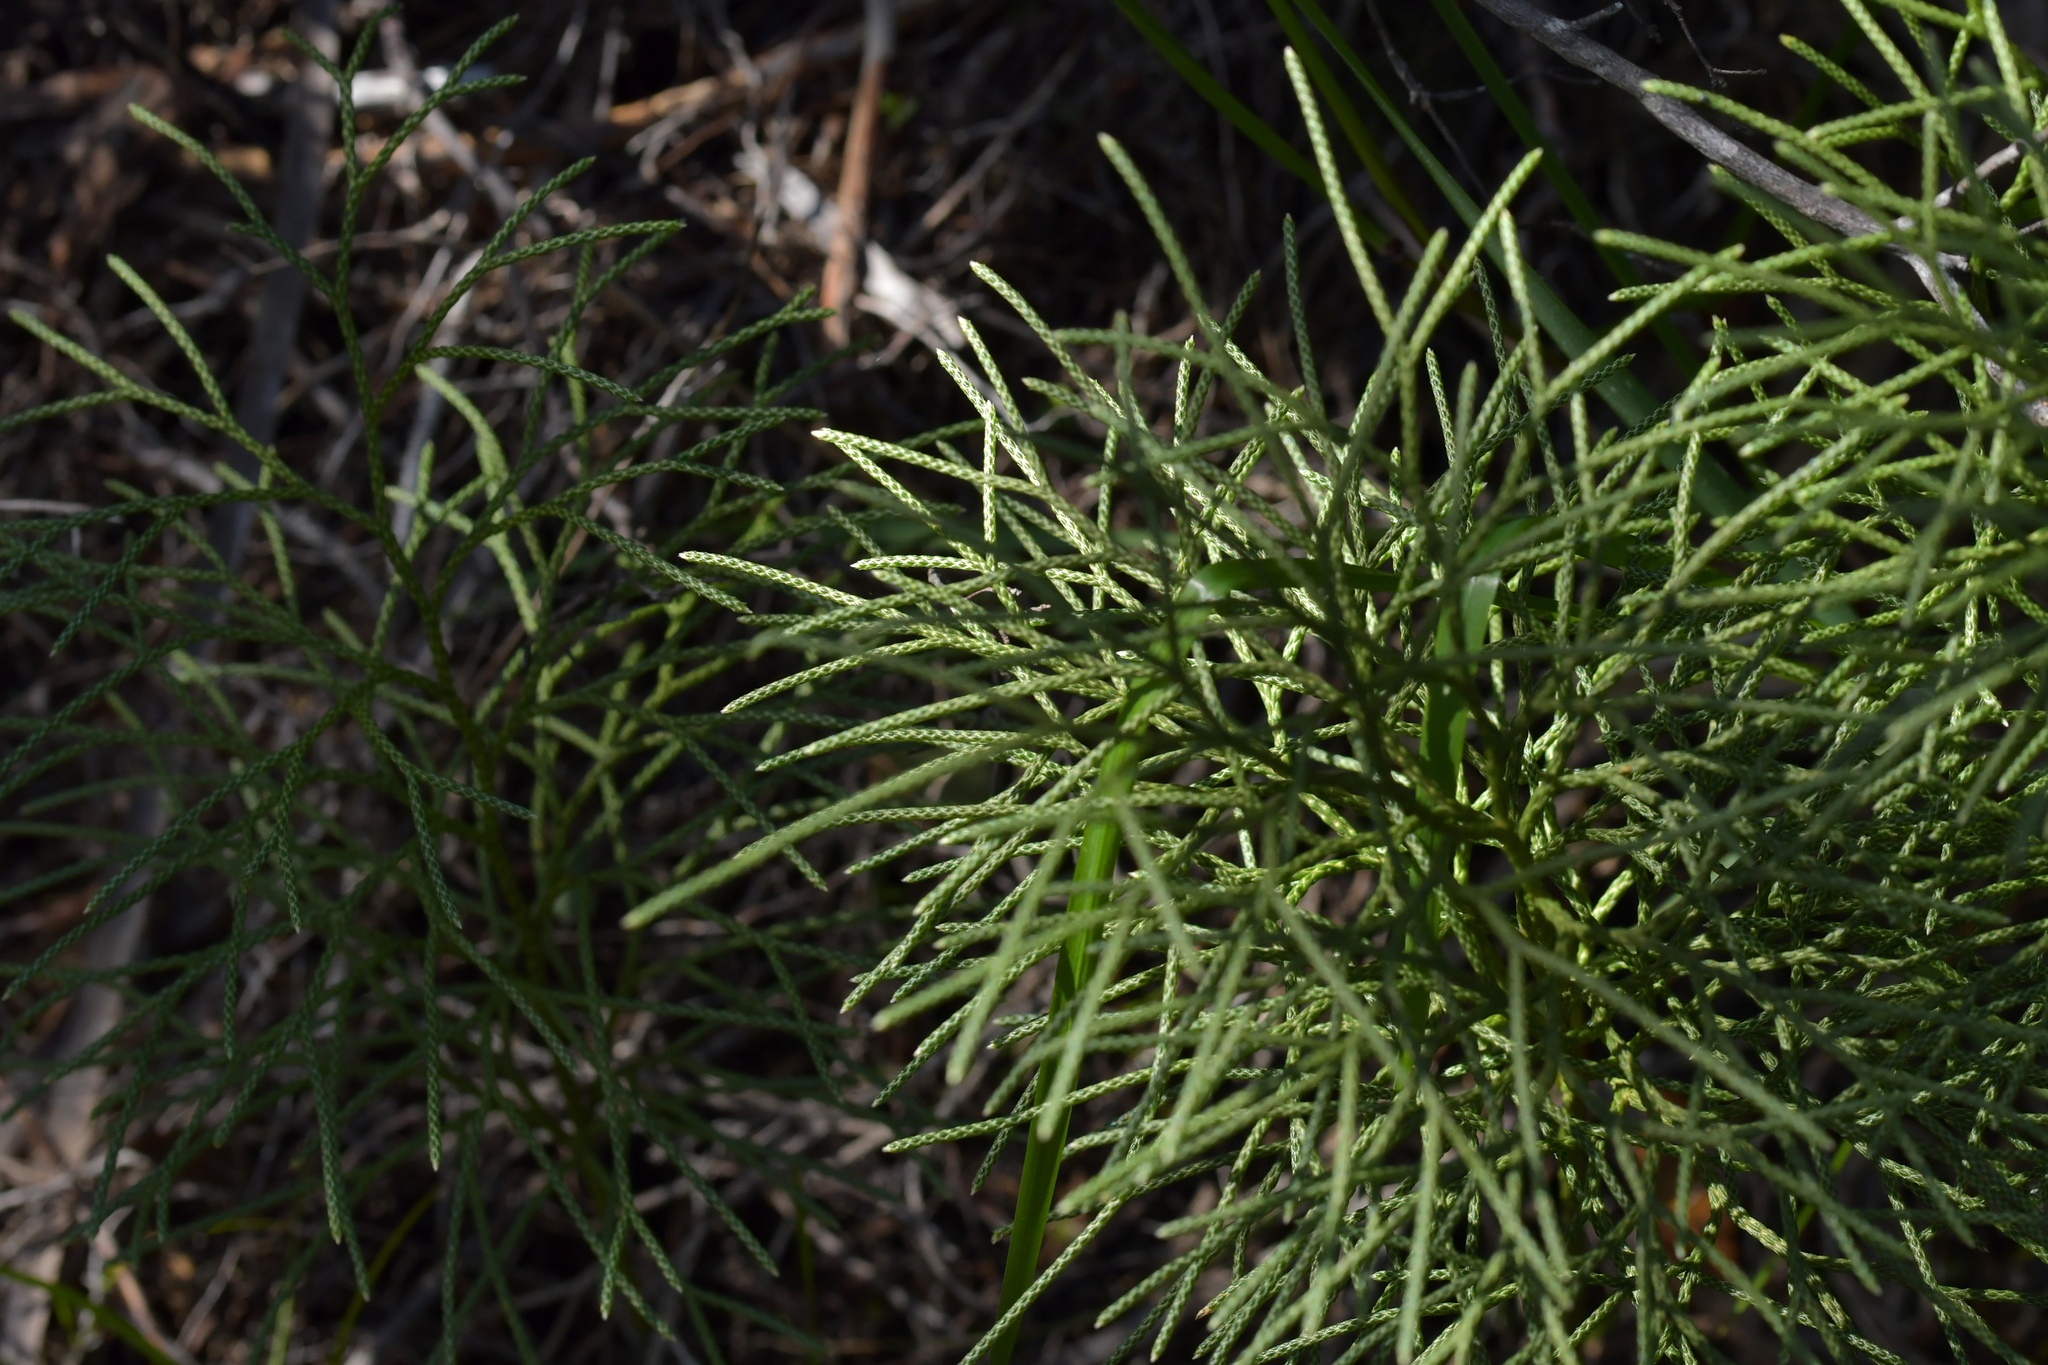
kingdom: Plantae
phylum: Tracheophyta
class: Lycopodiopsida
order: Lycopodiales
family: Lycopodiaceae
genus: Pseudolycopodium
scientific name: Pseudolycopodium densum
